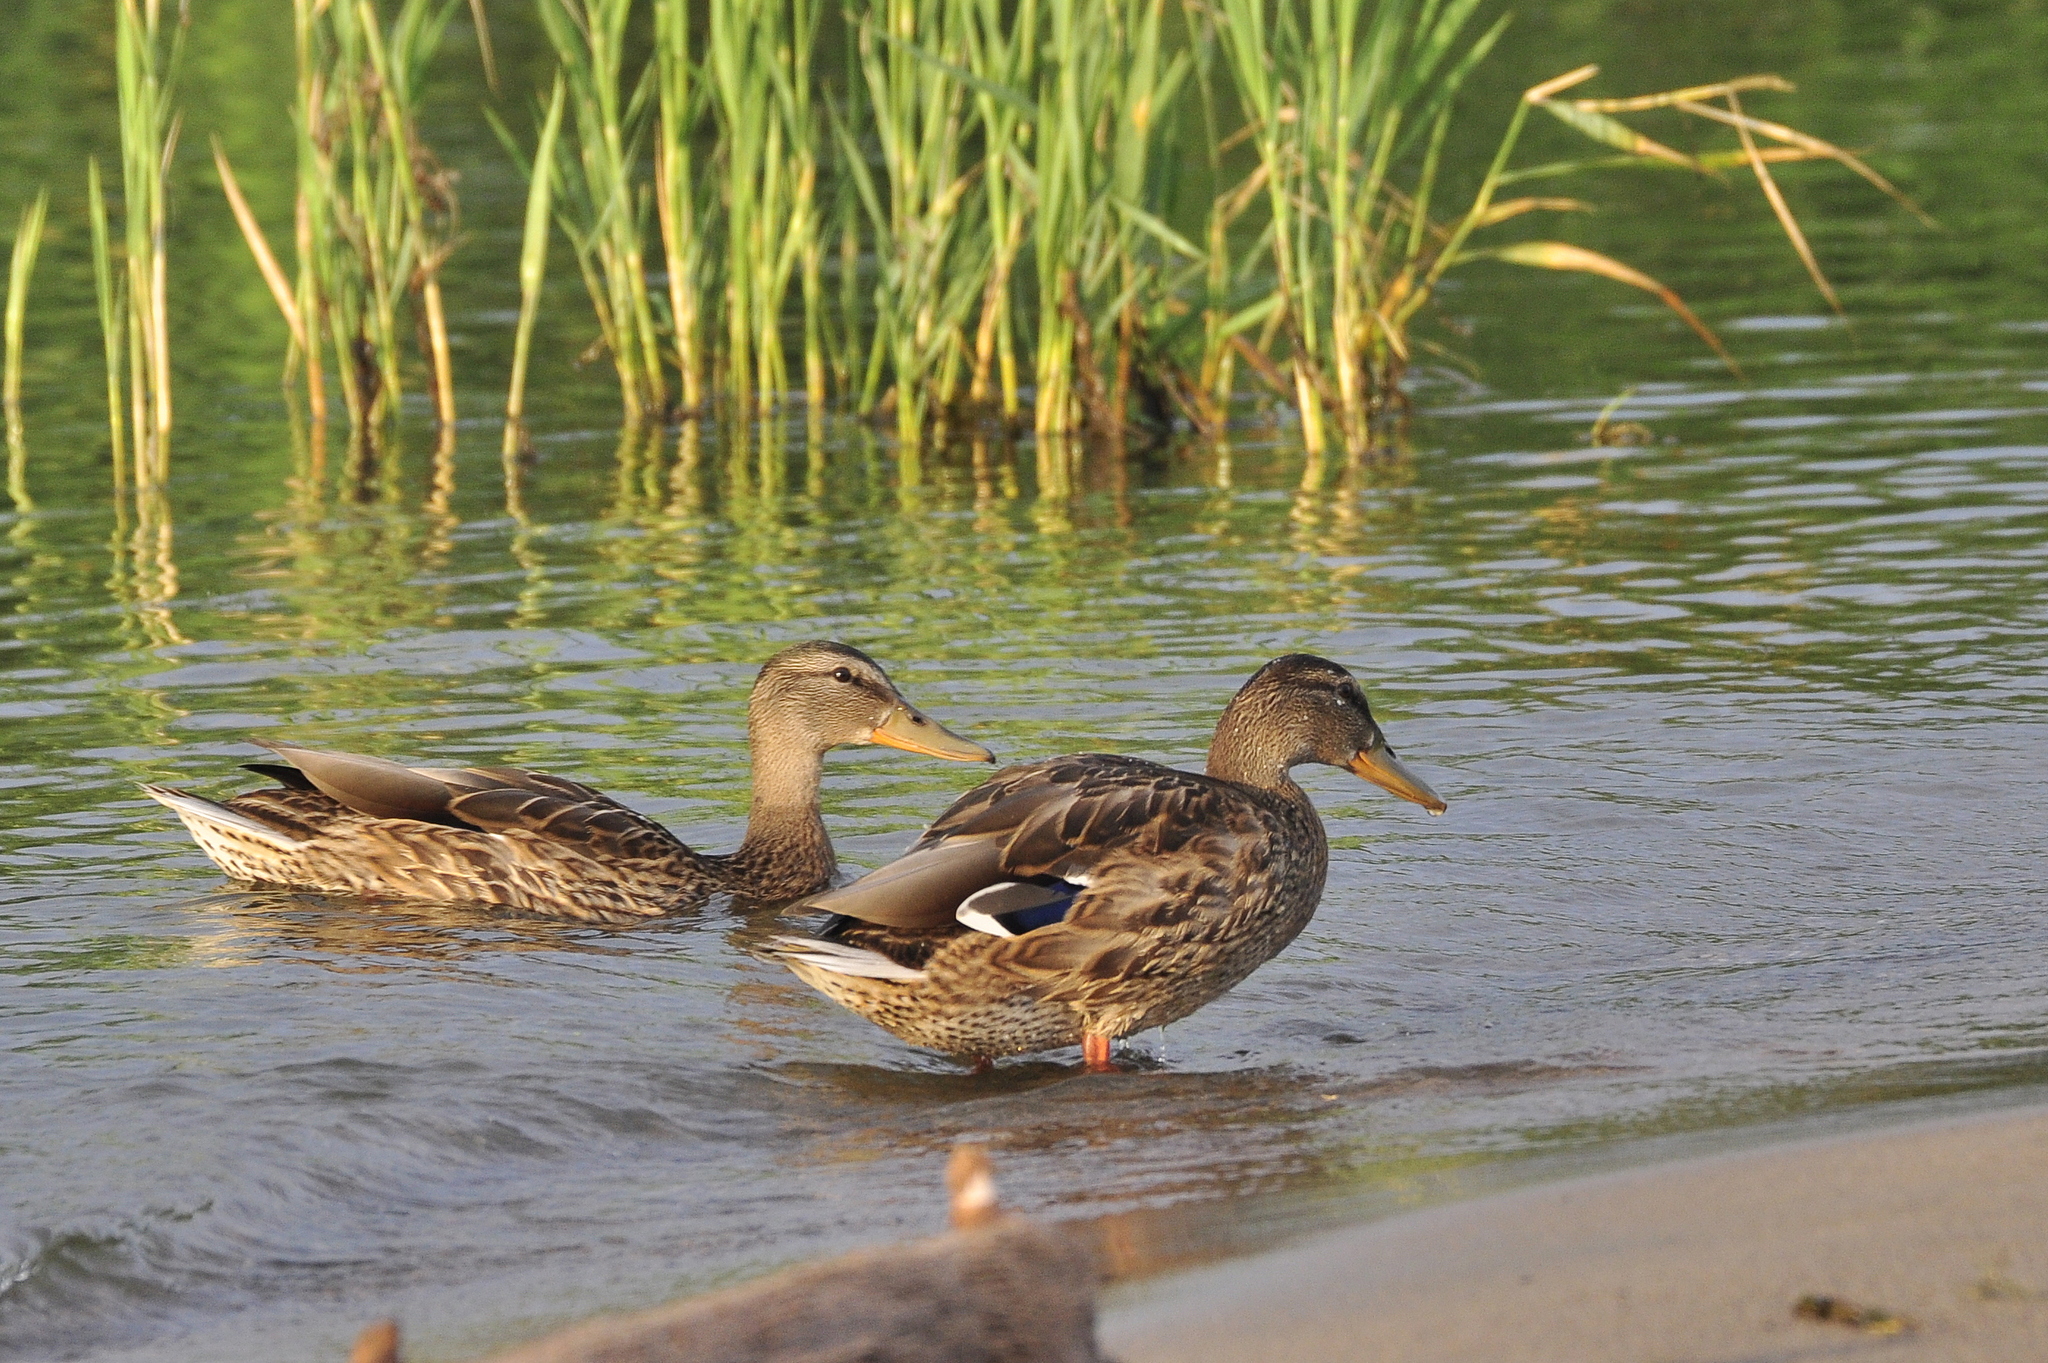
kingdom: Animalia
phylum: Chordata
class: Aves
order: Anseriformes
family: Anatidae
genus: Anas
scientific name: Anas platyrhynchos
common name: Mallard
